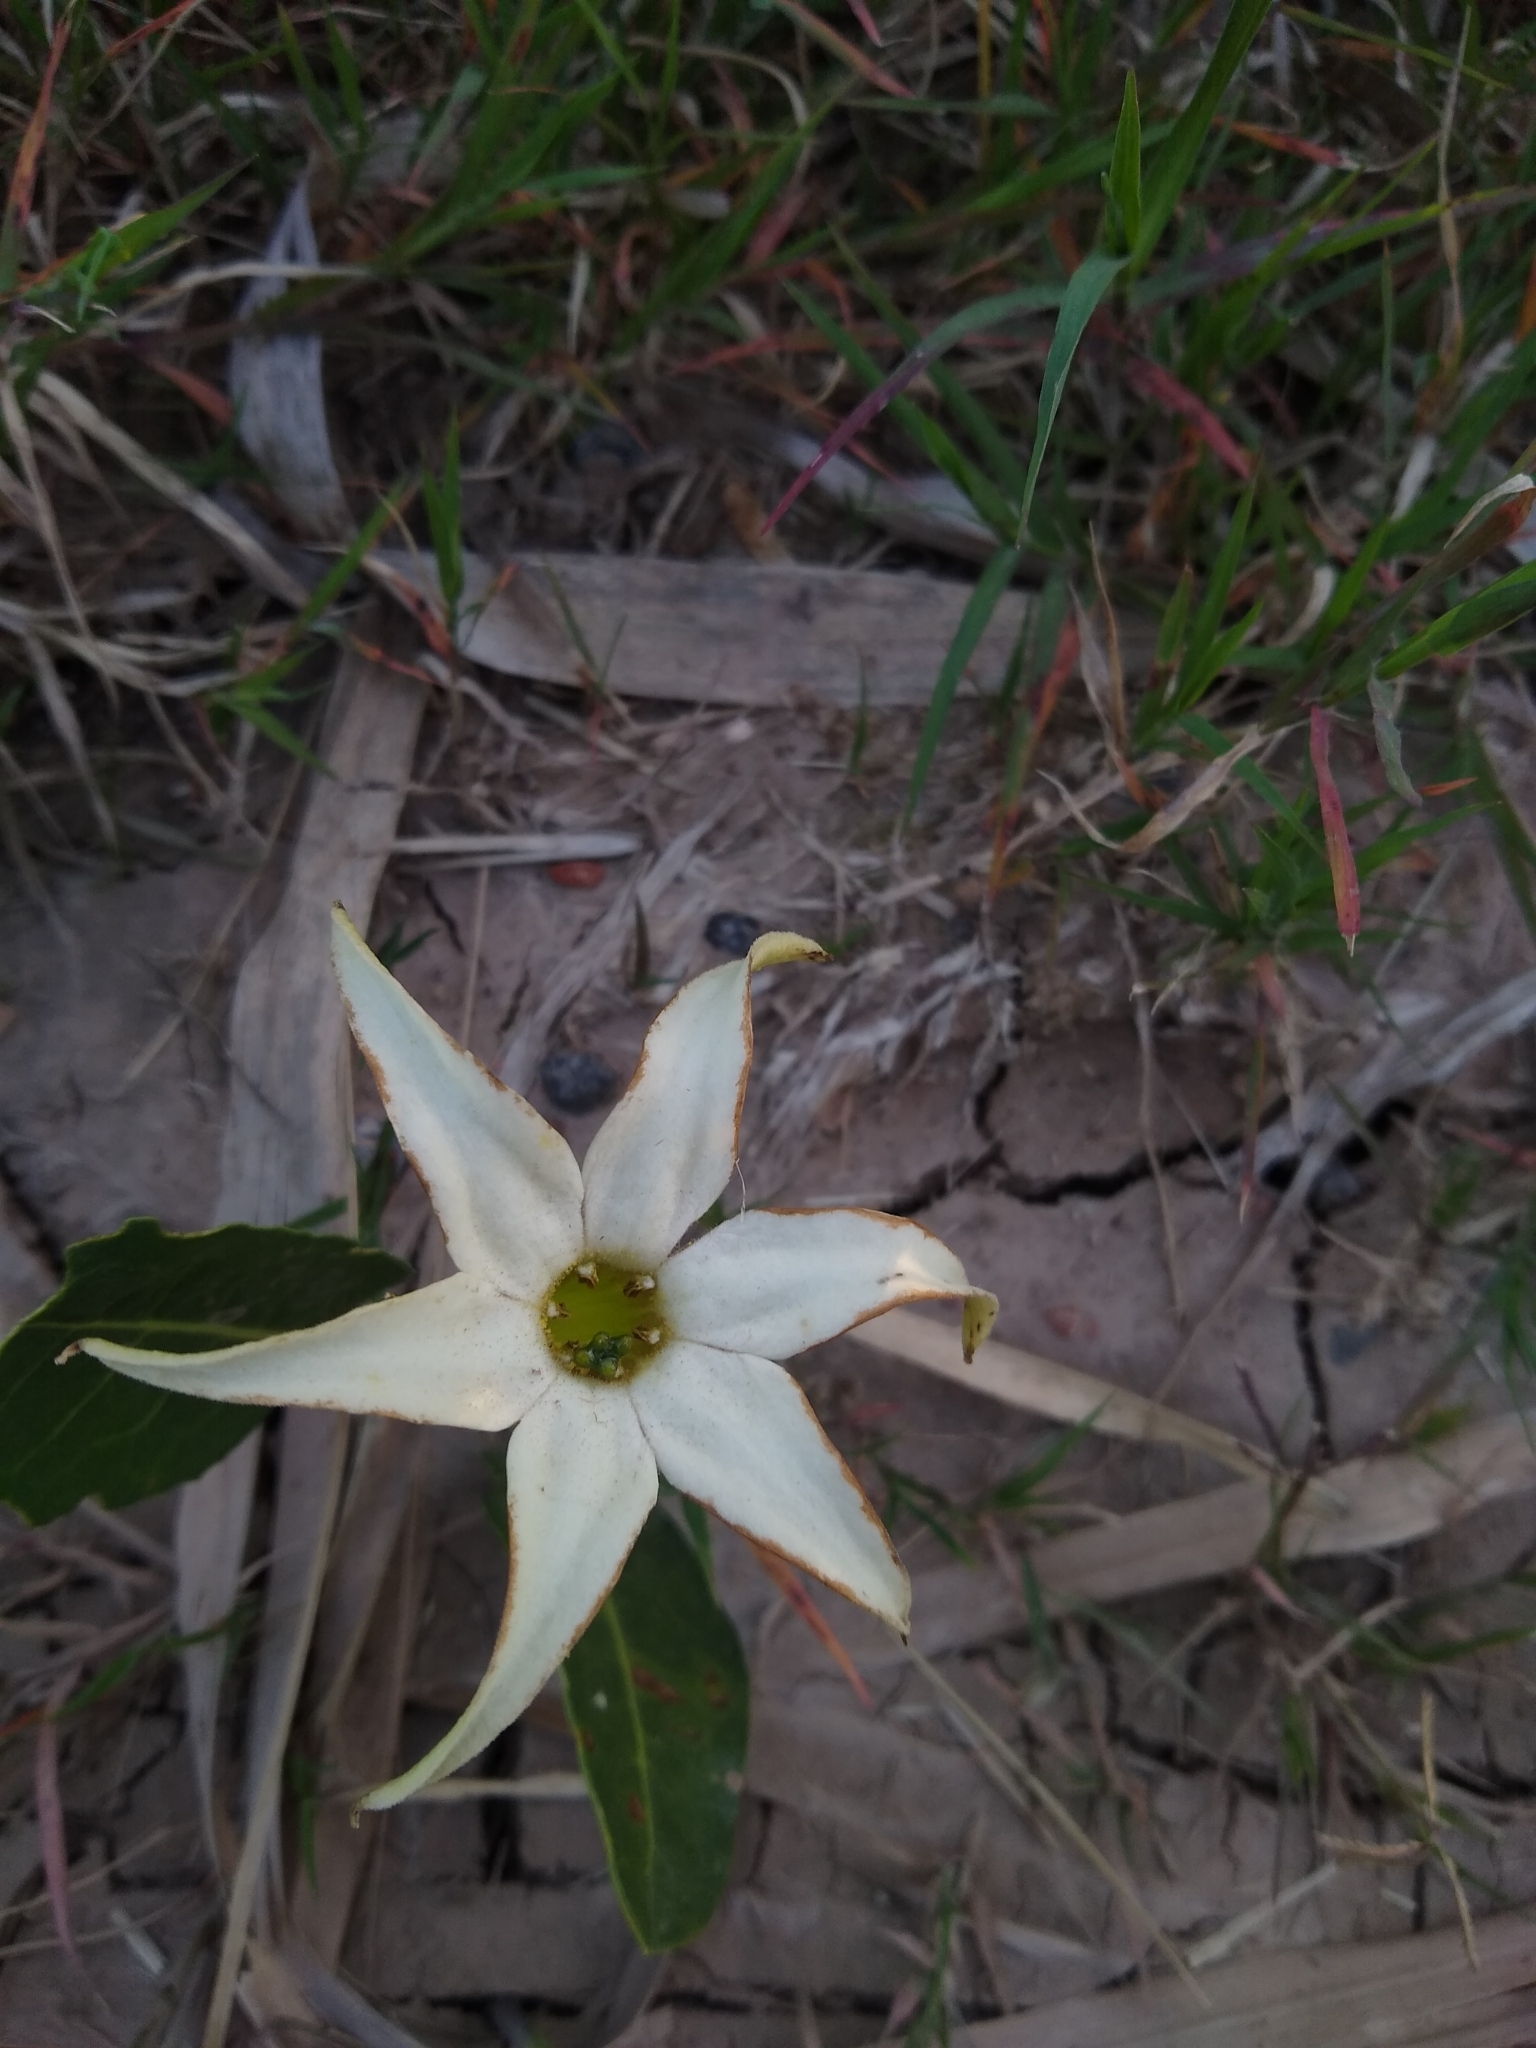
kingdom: Plantae
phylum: Tracheophyta
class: Magnoliopsida
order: Solanales
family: Solanaceae
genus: Jaborosa
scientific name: Jaborosa integrifolia
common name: Springblossom
